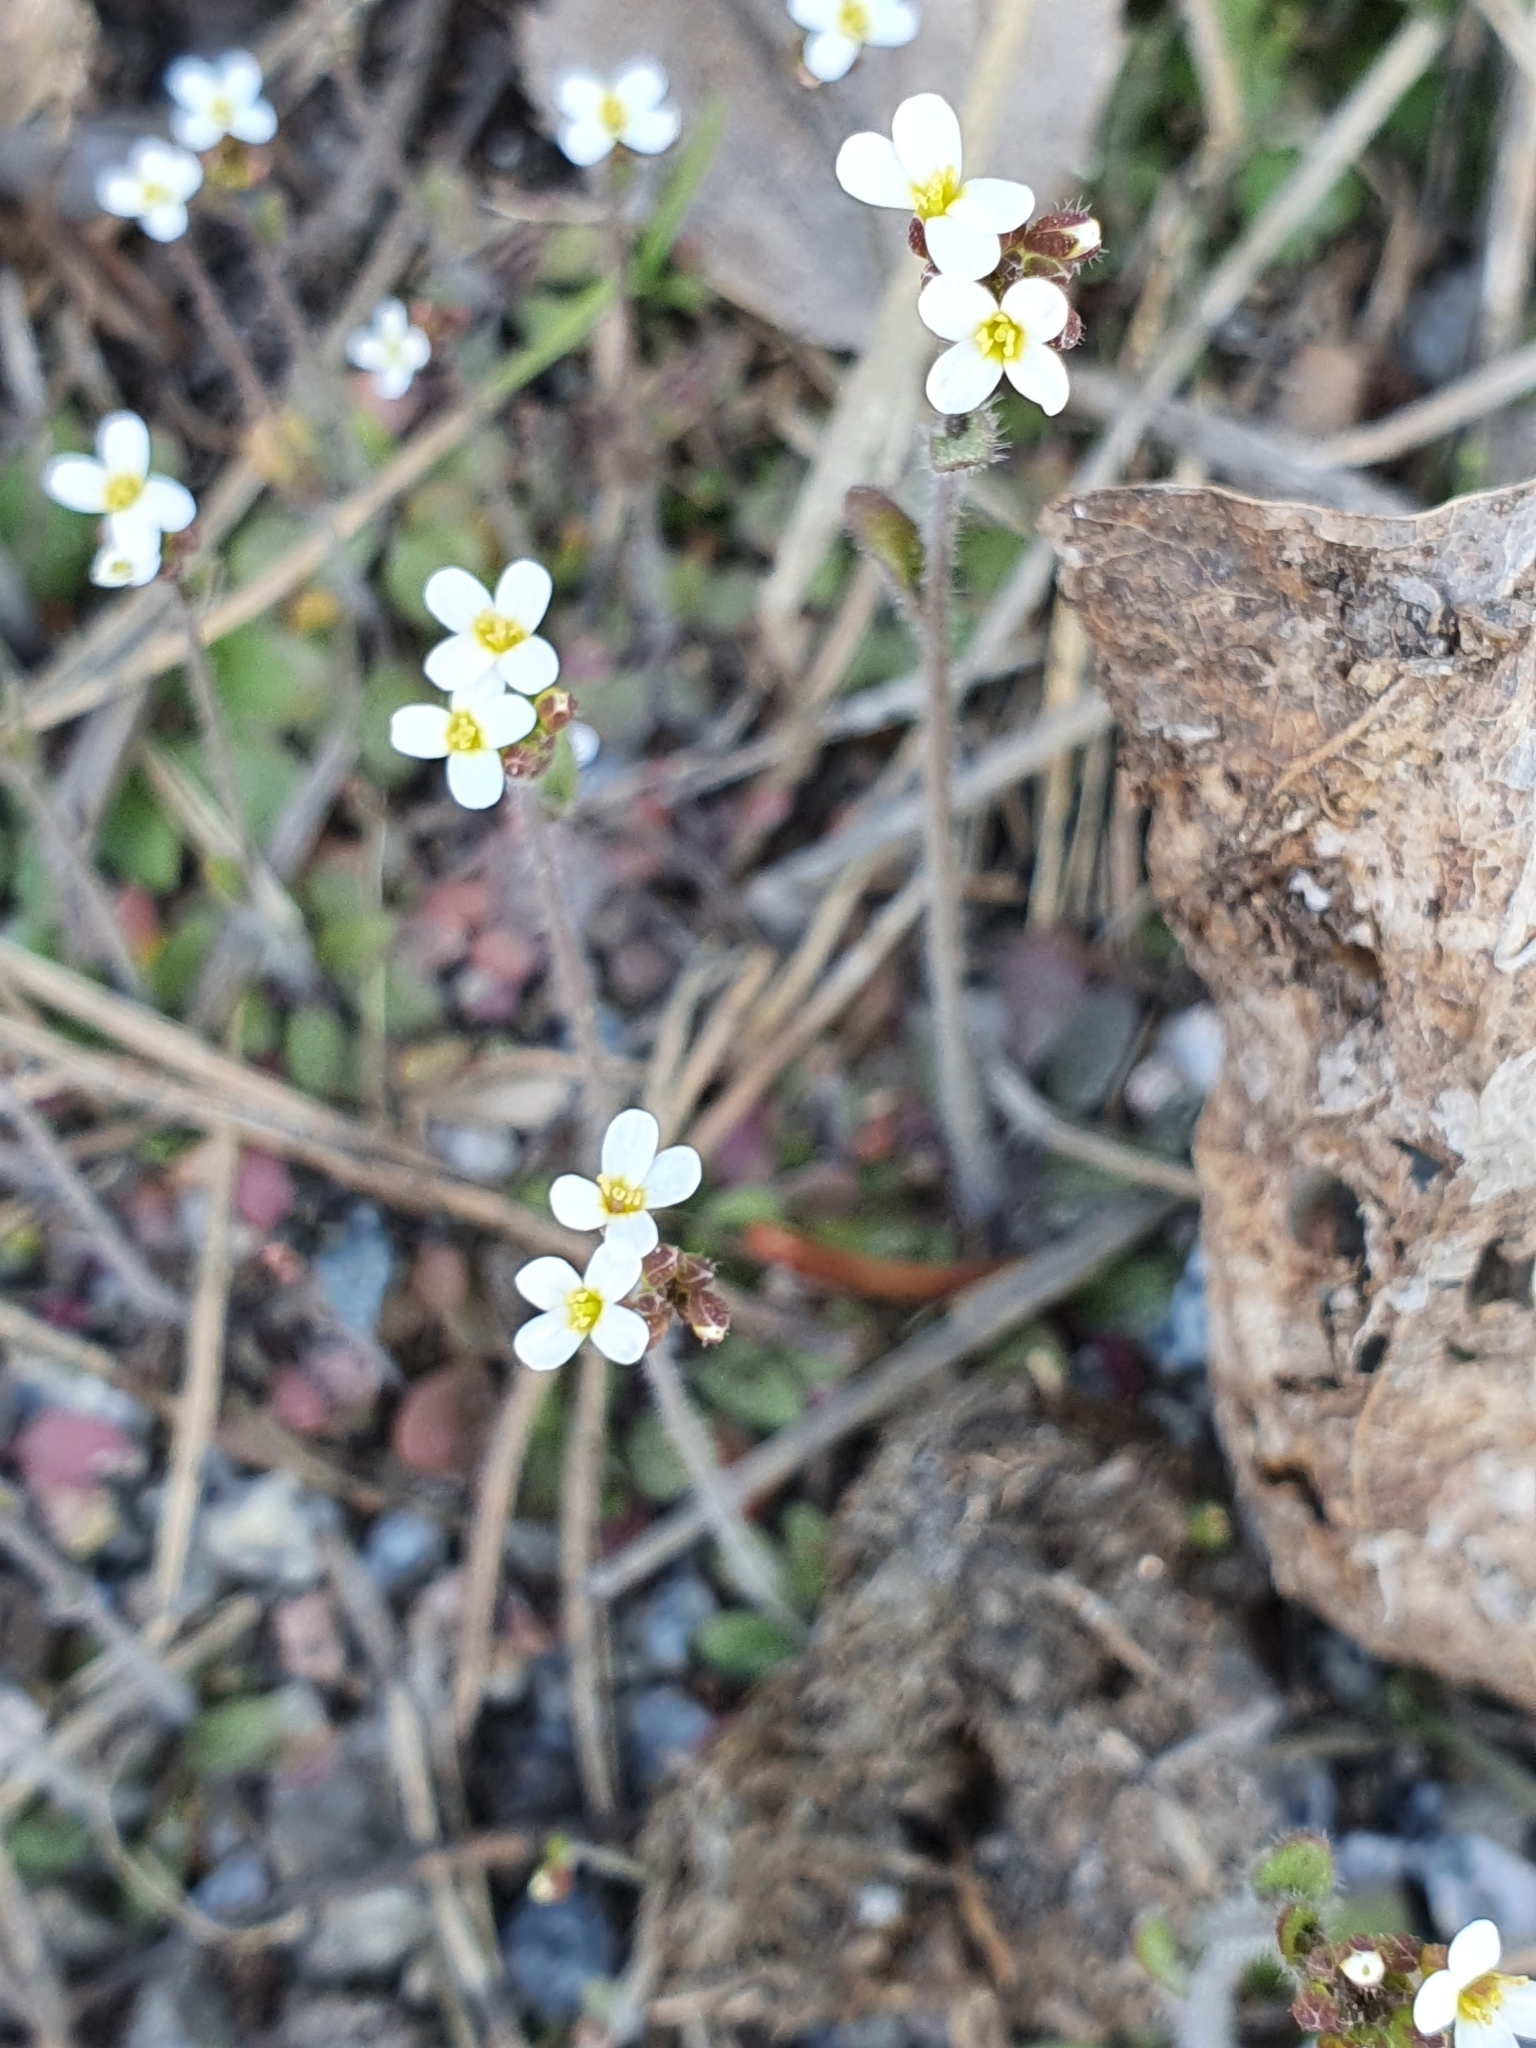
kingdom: Plantae
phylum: Tracheophyta
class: Magnoliopsida
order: Brassicales
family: Brassicaceae
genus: Arabidopsis
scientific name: Arabidopsis thaliana
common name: Thale cress
